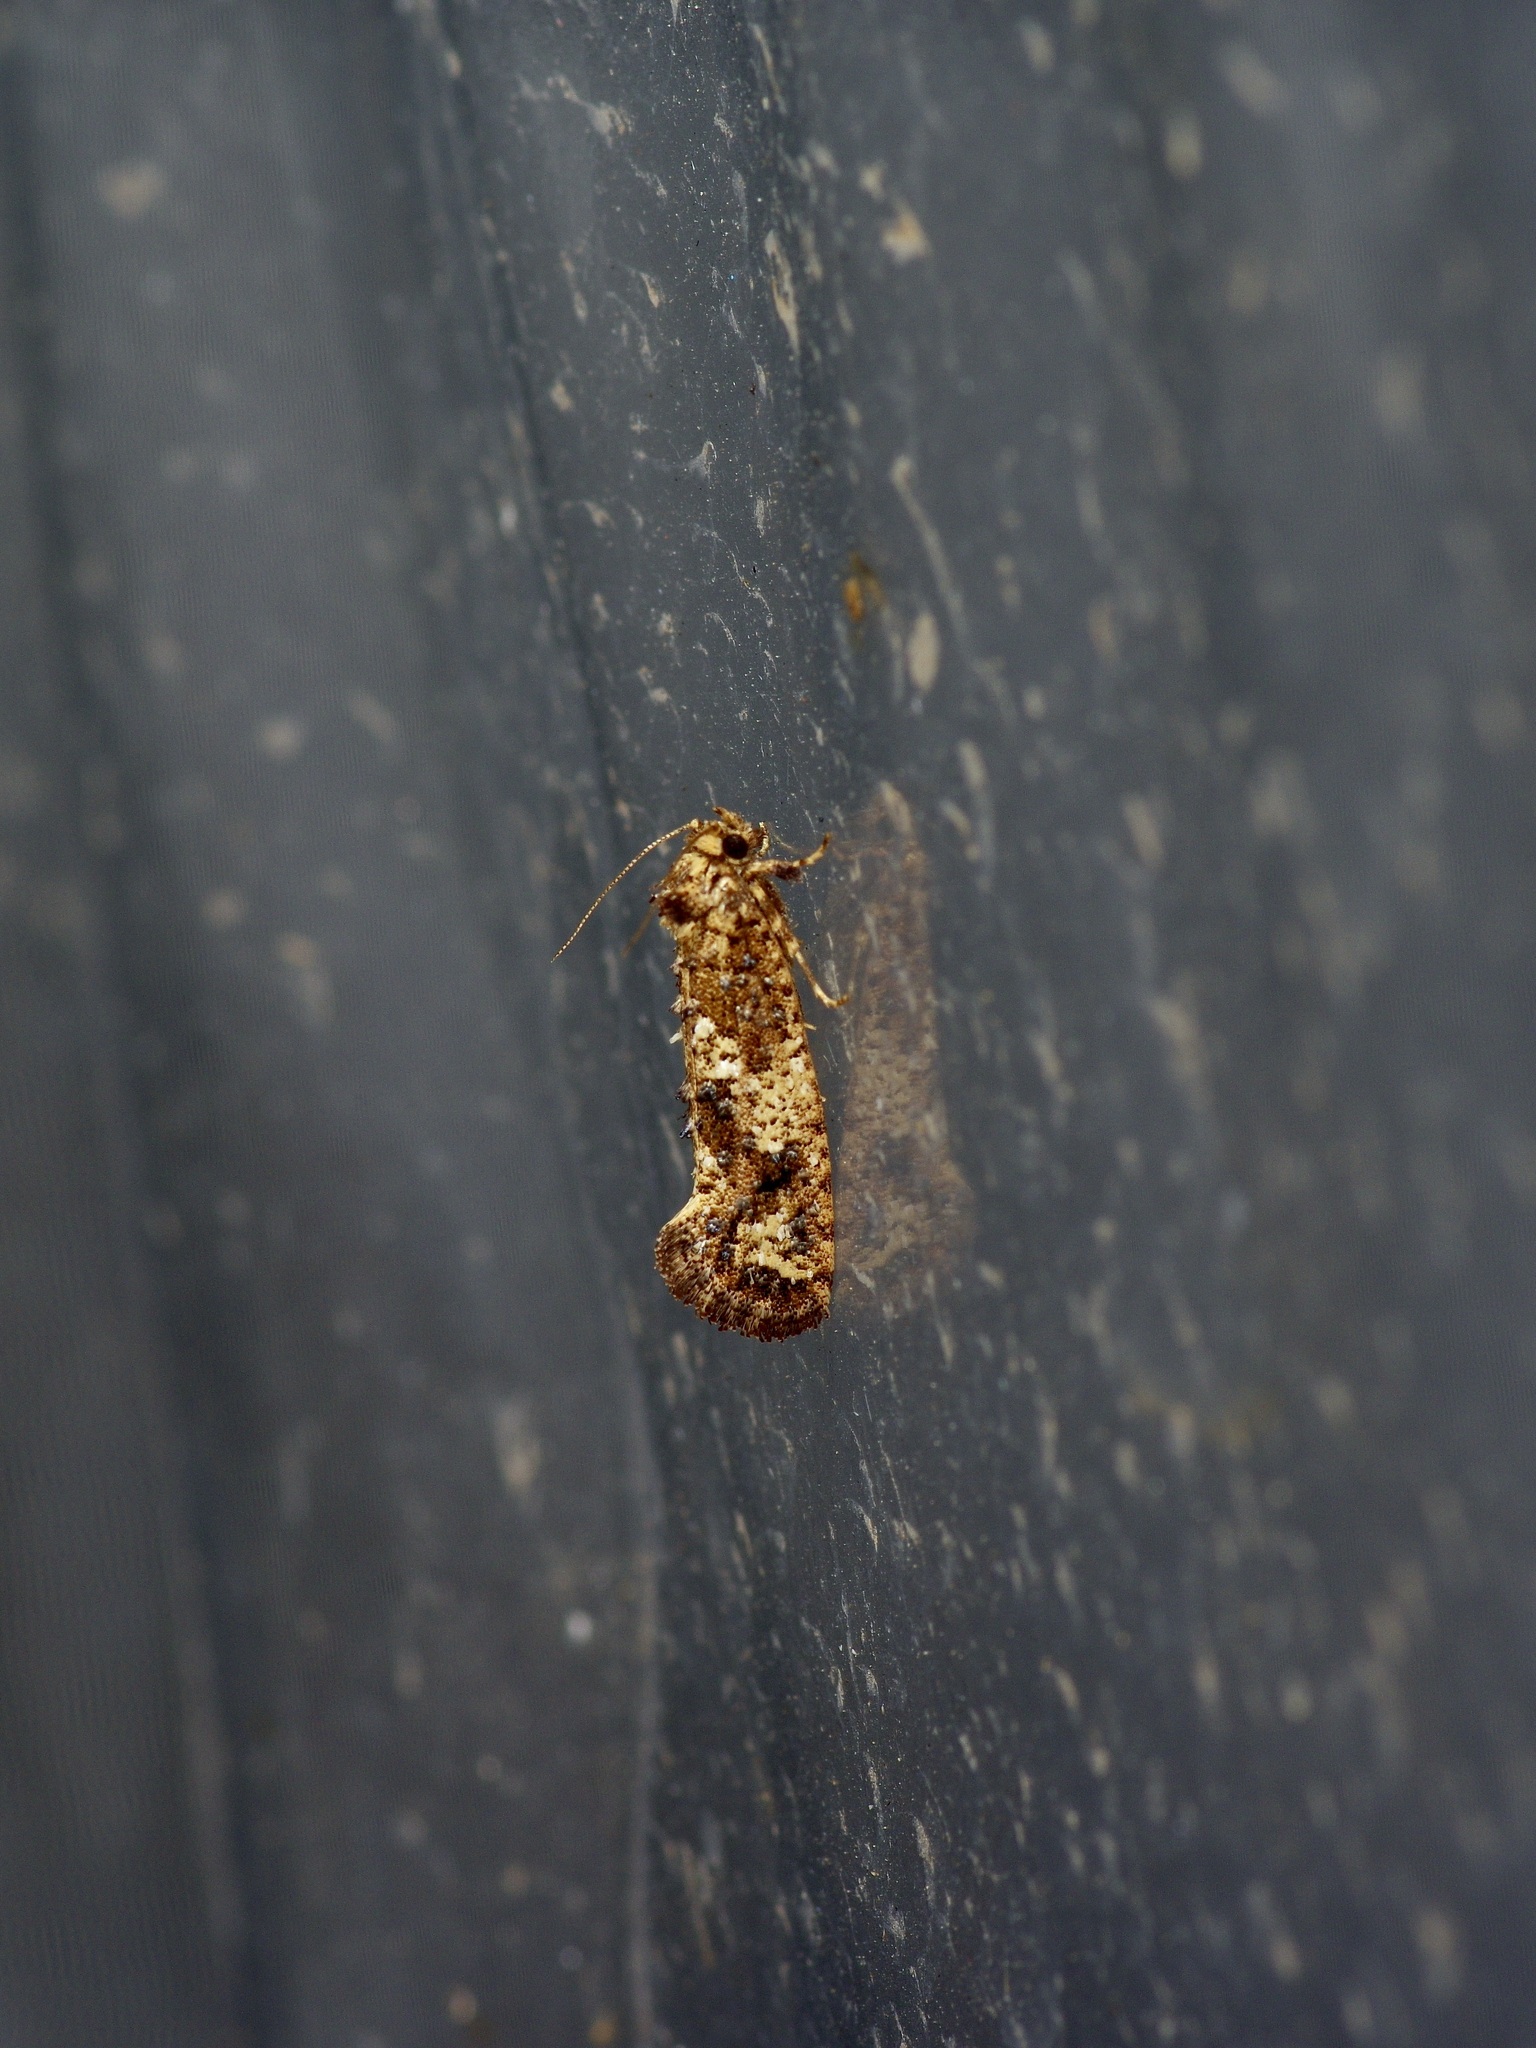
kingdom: Animalia
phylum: Arthropoda
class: Insecta
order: Lepidoptera
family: Tineidae
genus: Acrolophus
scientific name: Acrolophus cressoni
